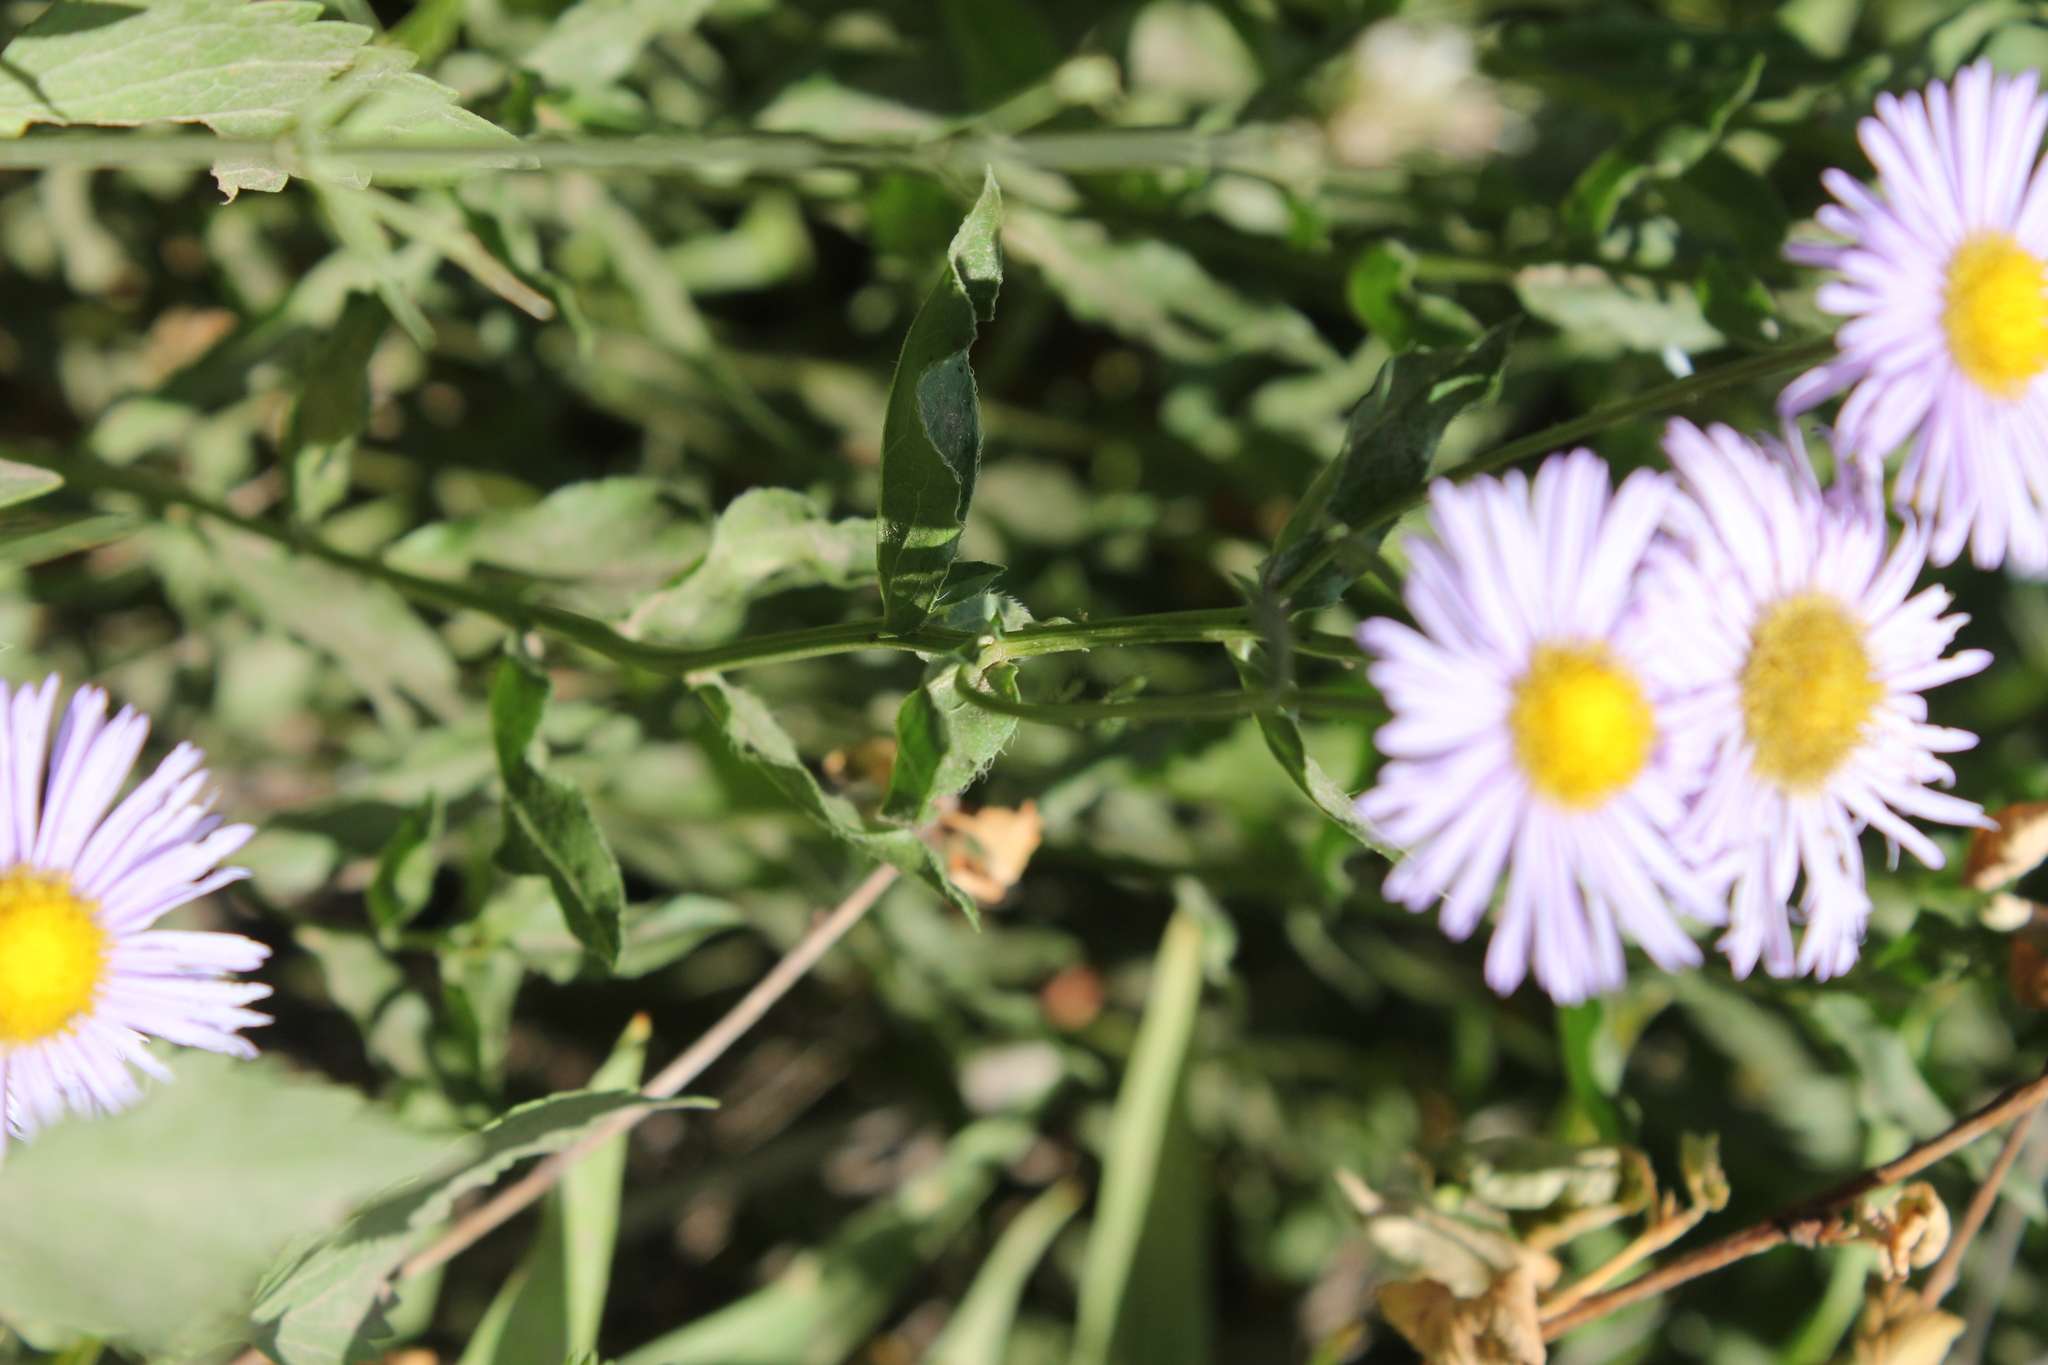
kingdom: Plantae
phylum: Tracheophyta
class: Magnoliopsida
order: Asterales
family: Asteraceae
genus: Erigeron
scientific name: Erigeron speciosus
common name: Aspen fleabane
